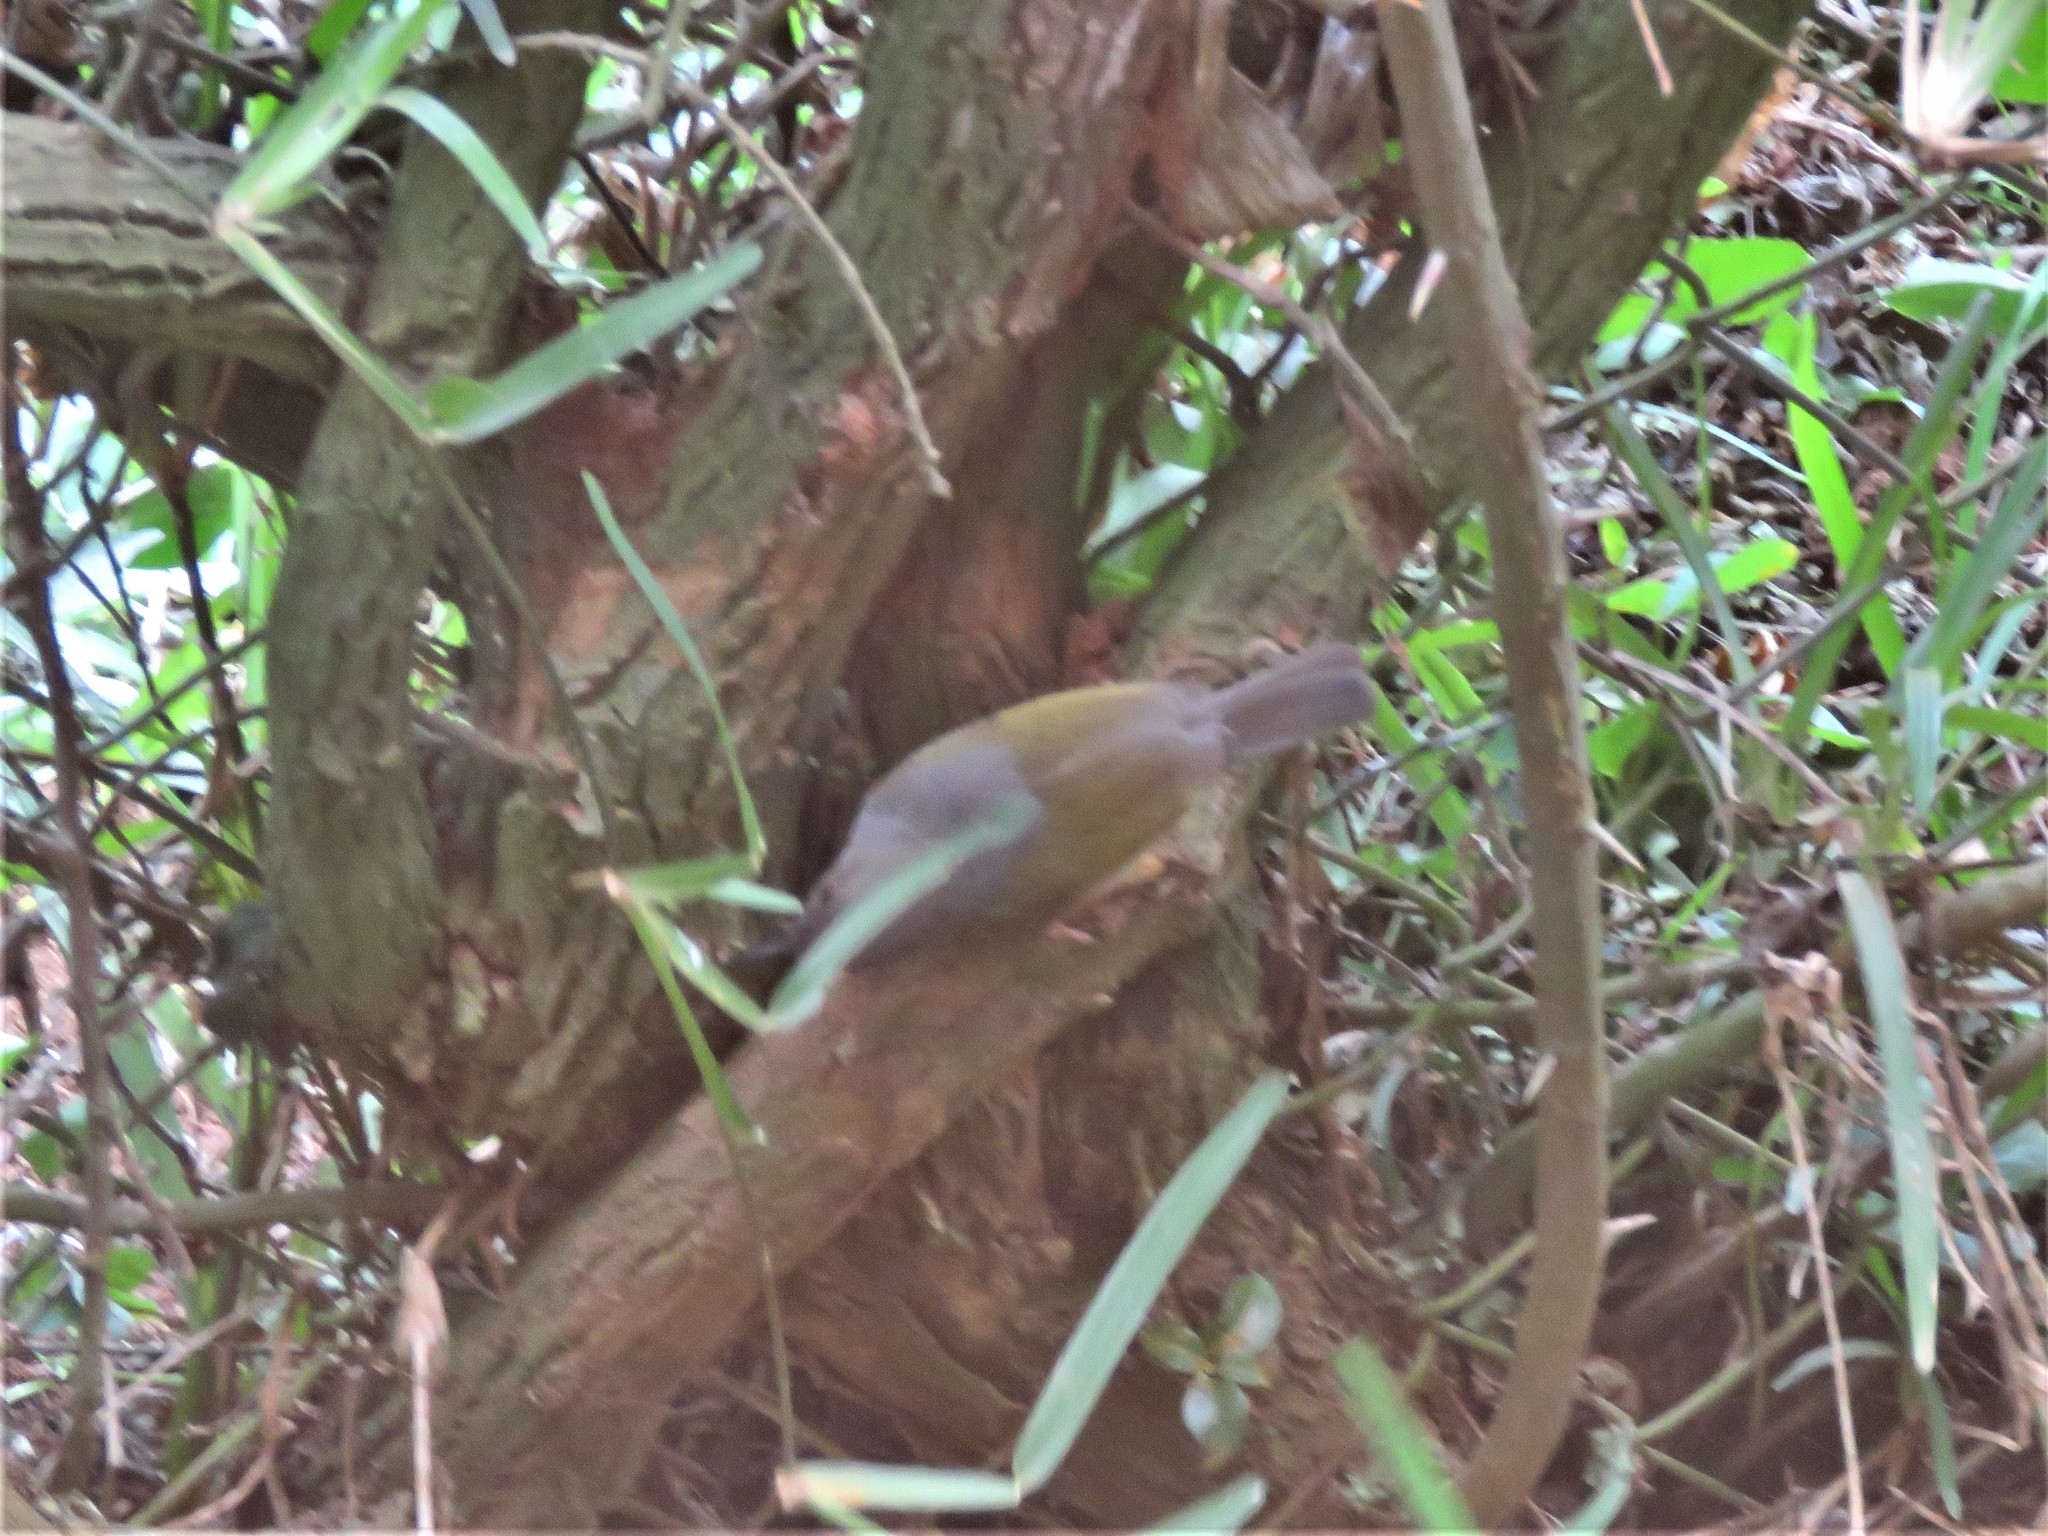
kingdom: Animalia
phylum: Chordata
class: Aves
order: Passeriformes
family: Cisticolidae
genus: Camaroptera
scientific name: Camaroptera brachyura
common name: Green-backed camaroptera
